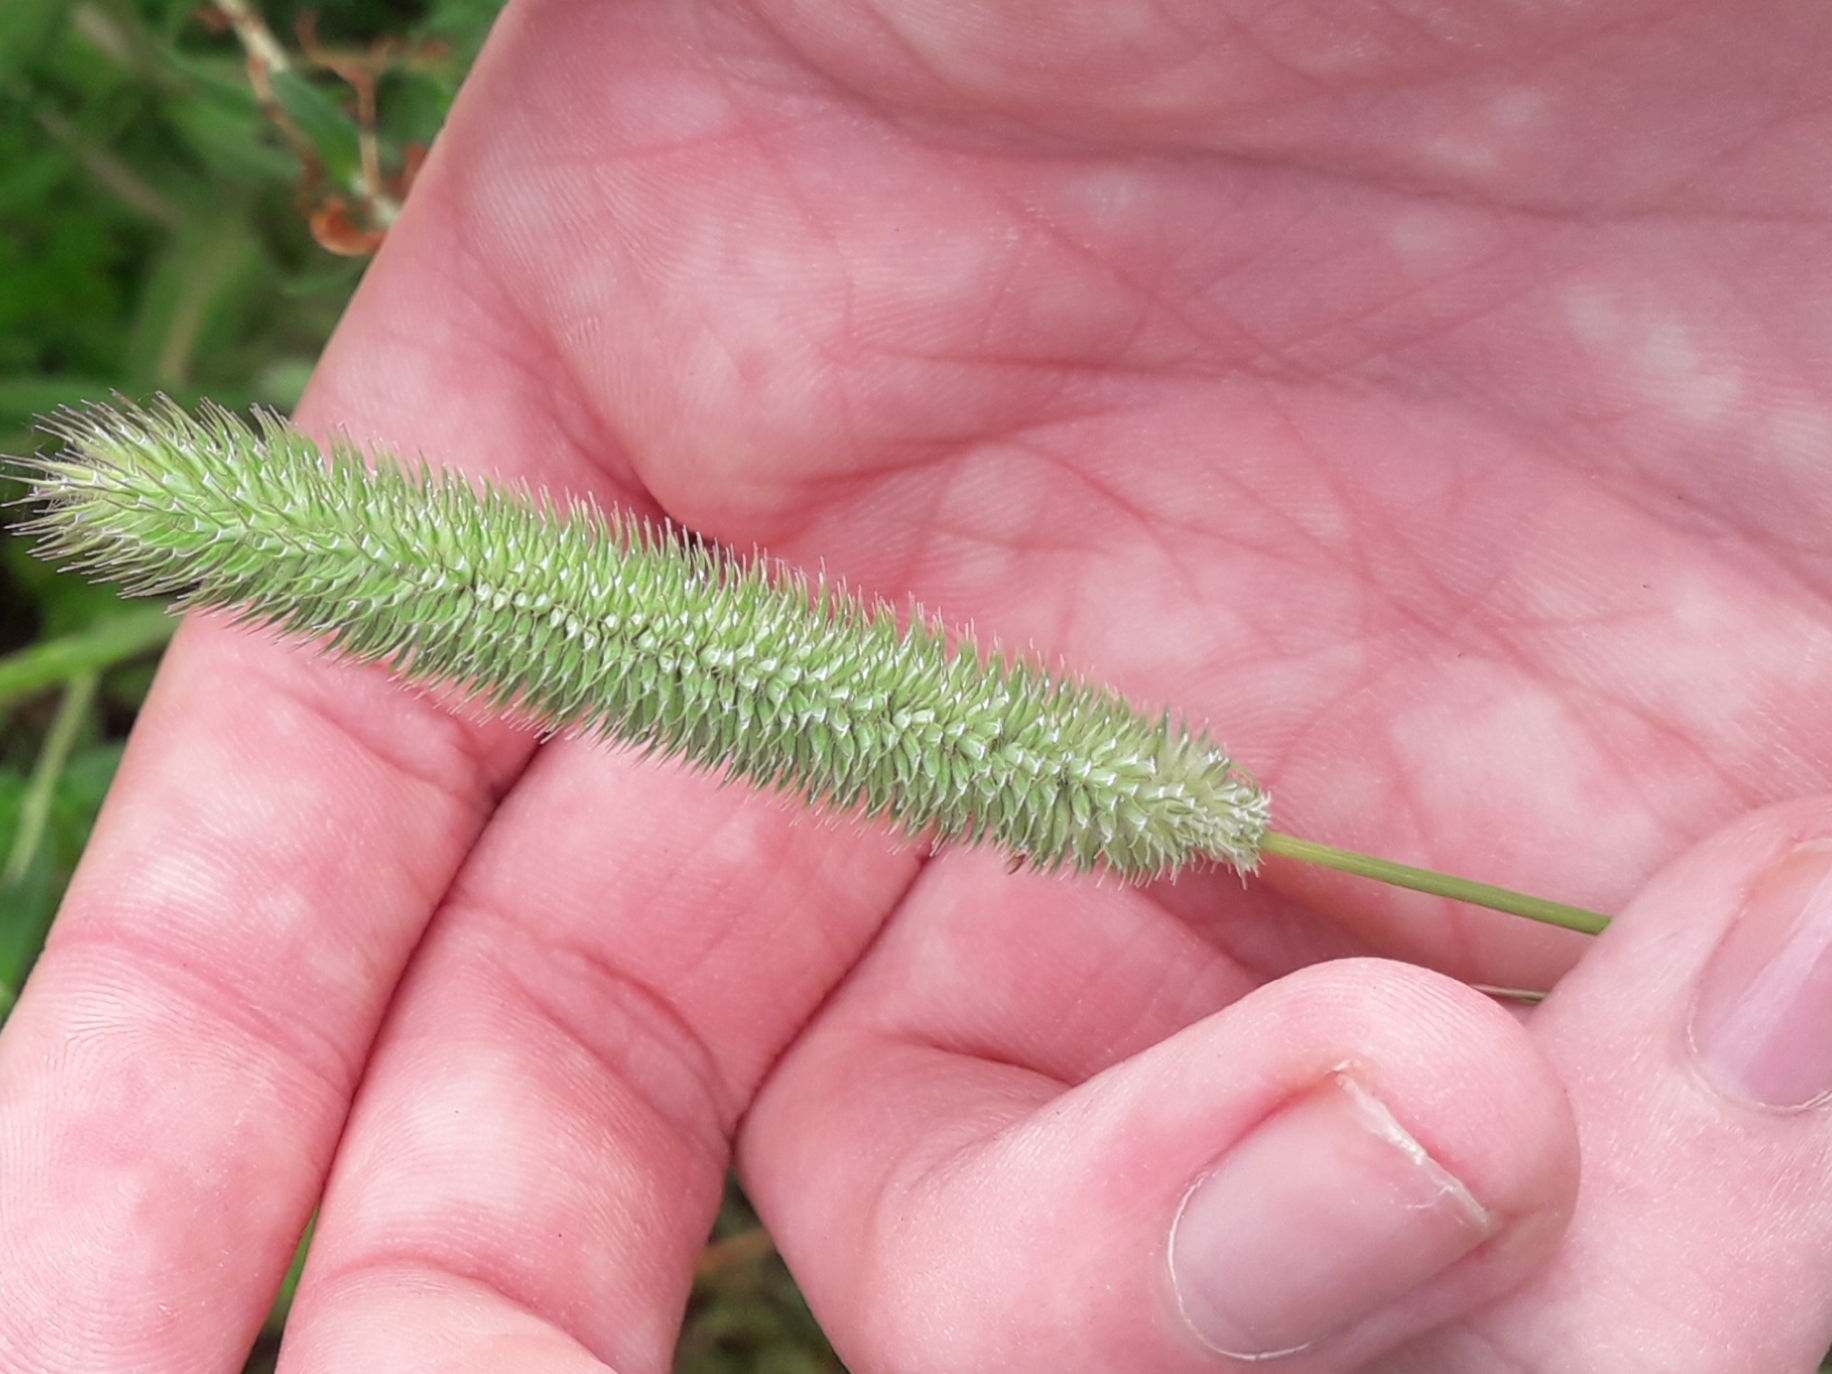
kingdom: Plantae
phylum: Tracheophyta
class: Liliopsida
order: Poales
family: Poaceae
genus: Phleum
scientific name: Phleum pratense
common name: Timothy grass
